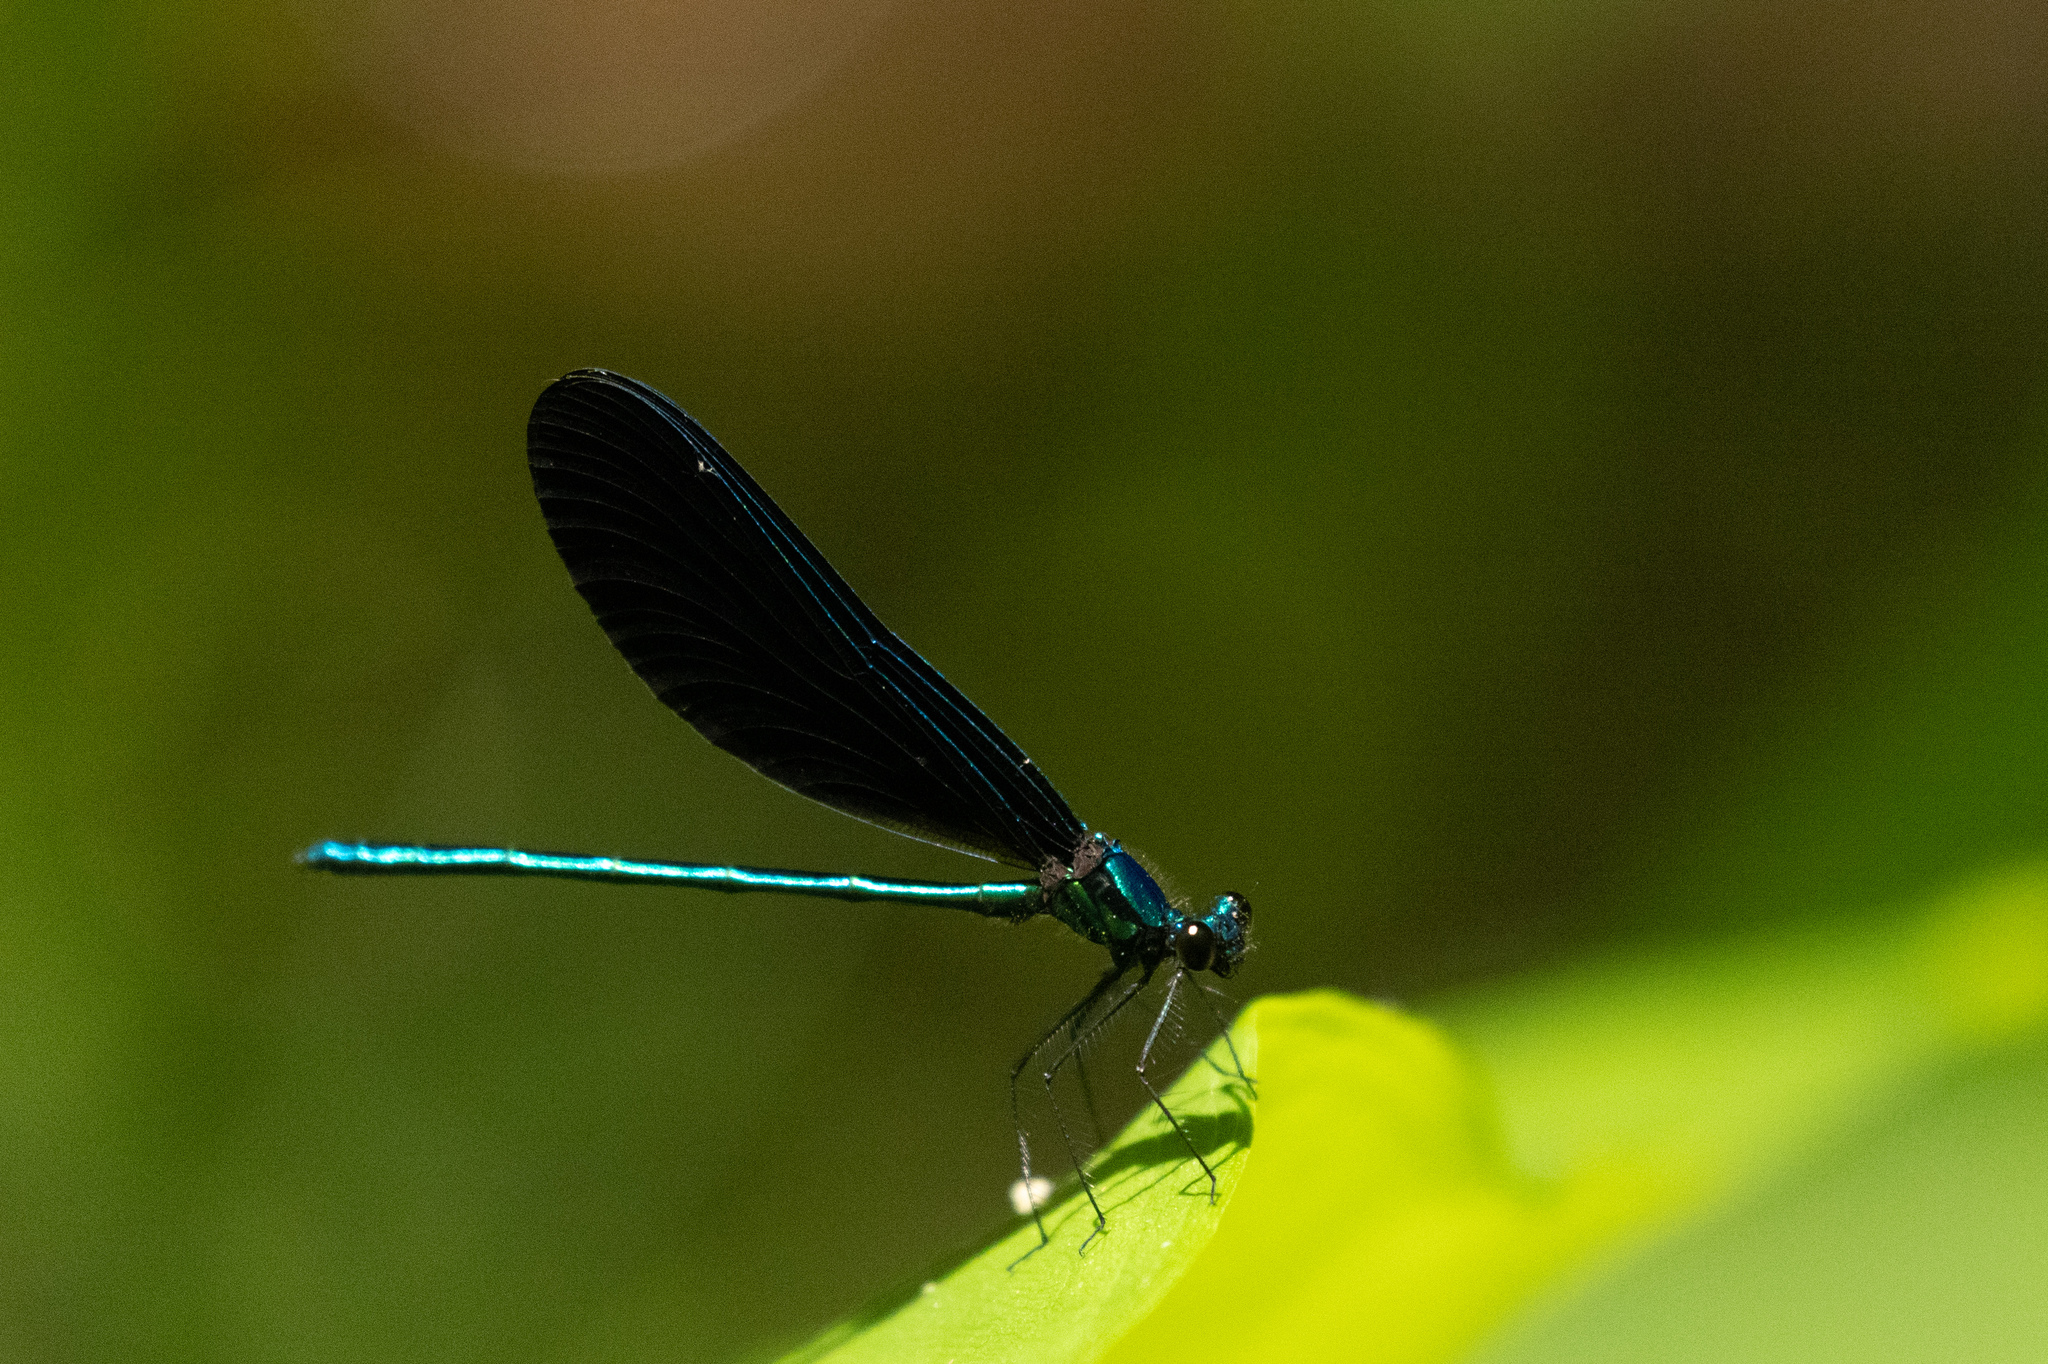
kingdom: Animalia
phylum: Arthropoda
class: Insecta
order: Odonata
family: Calopterygidae
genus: Calopteryx
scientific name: Calopteryx maculata
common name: Ebony jewelwing
